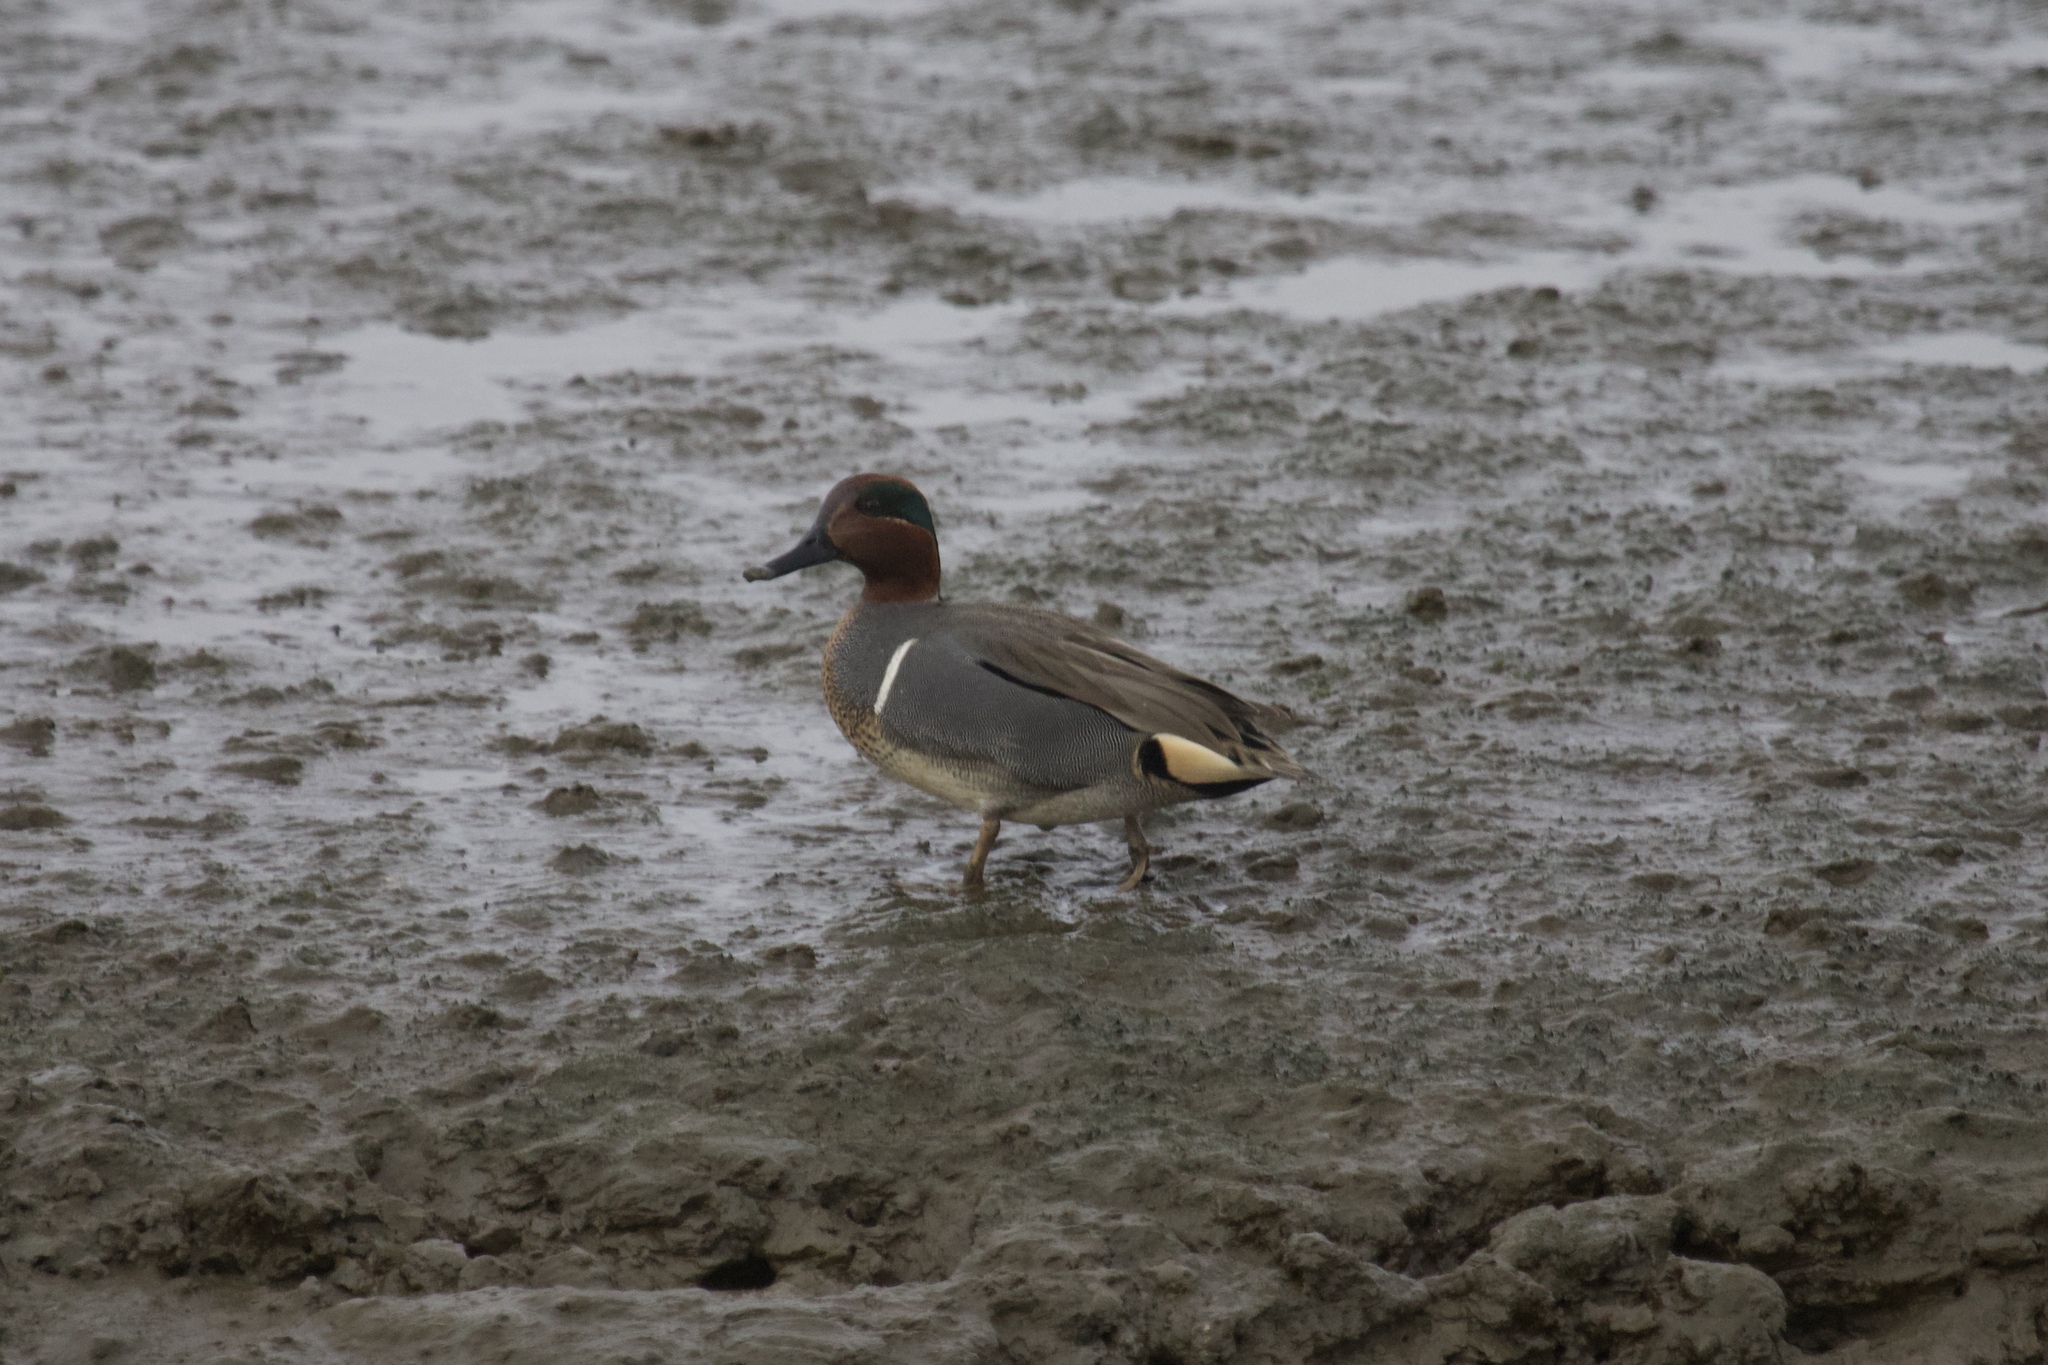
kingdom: Animalia
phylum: Chordata
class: Aves
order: Anseriformes
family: Anatidae
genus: Anas
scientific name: Anas crecca
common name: Eurasian teal
